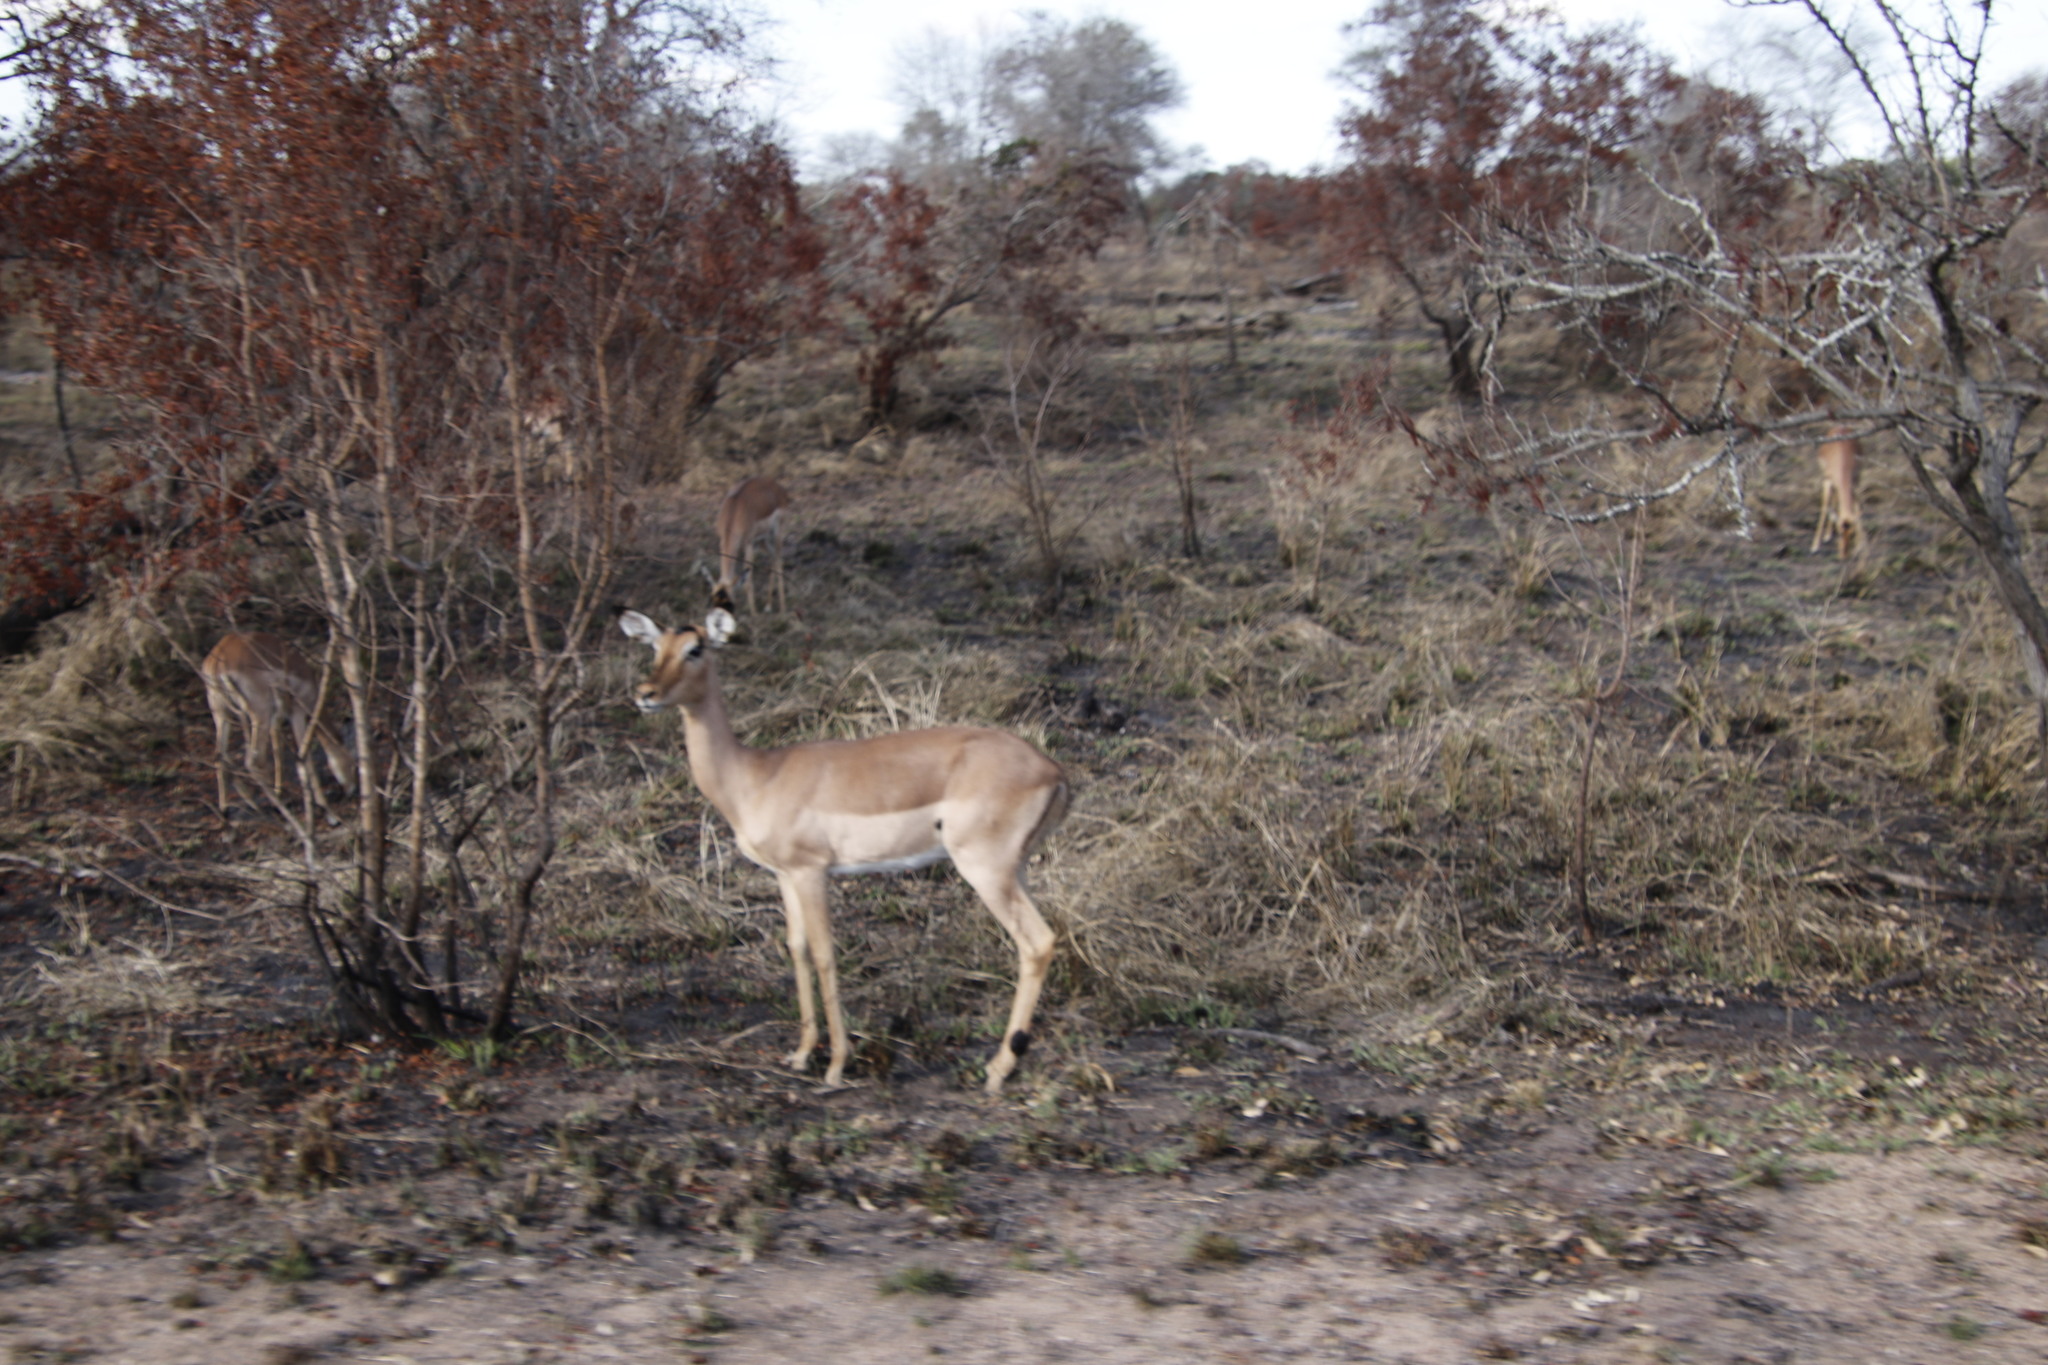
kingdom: Animalia
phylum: Chordata
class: Mammalia
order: Artiodactyla
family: Bovidae
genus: Aepyceros
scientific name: Aepyceros melampus
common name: Impala
